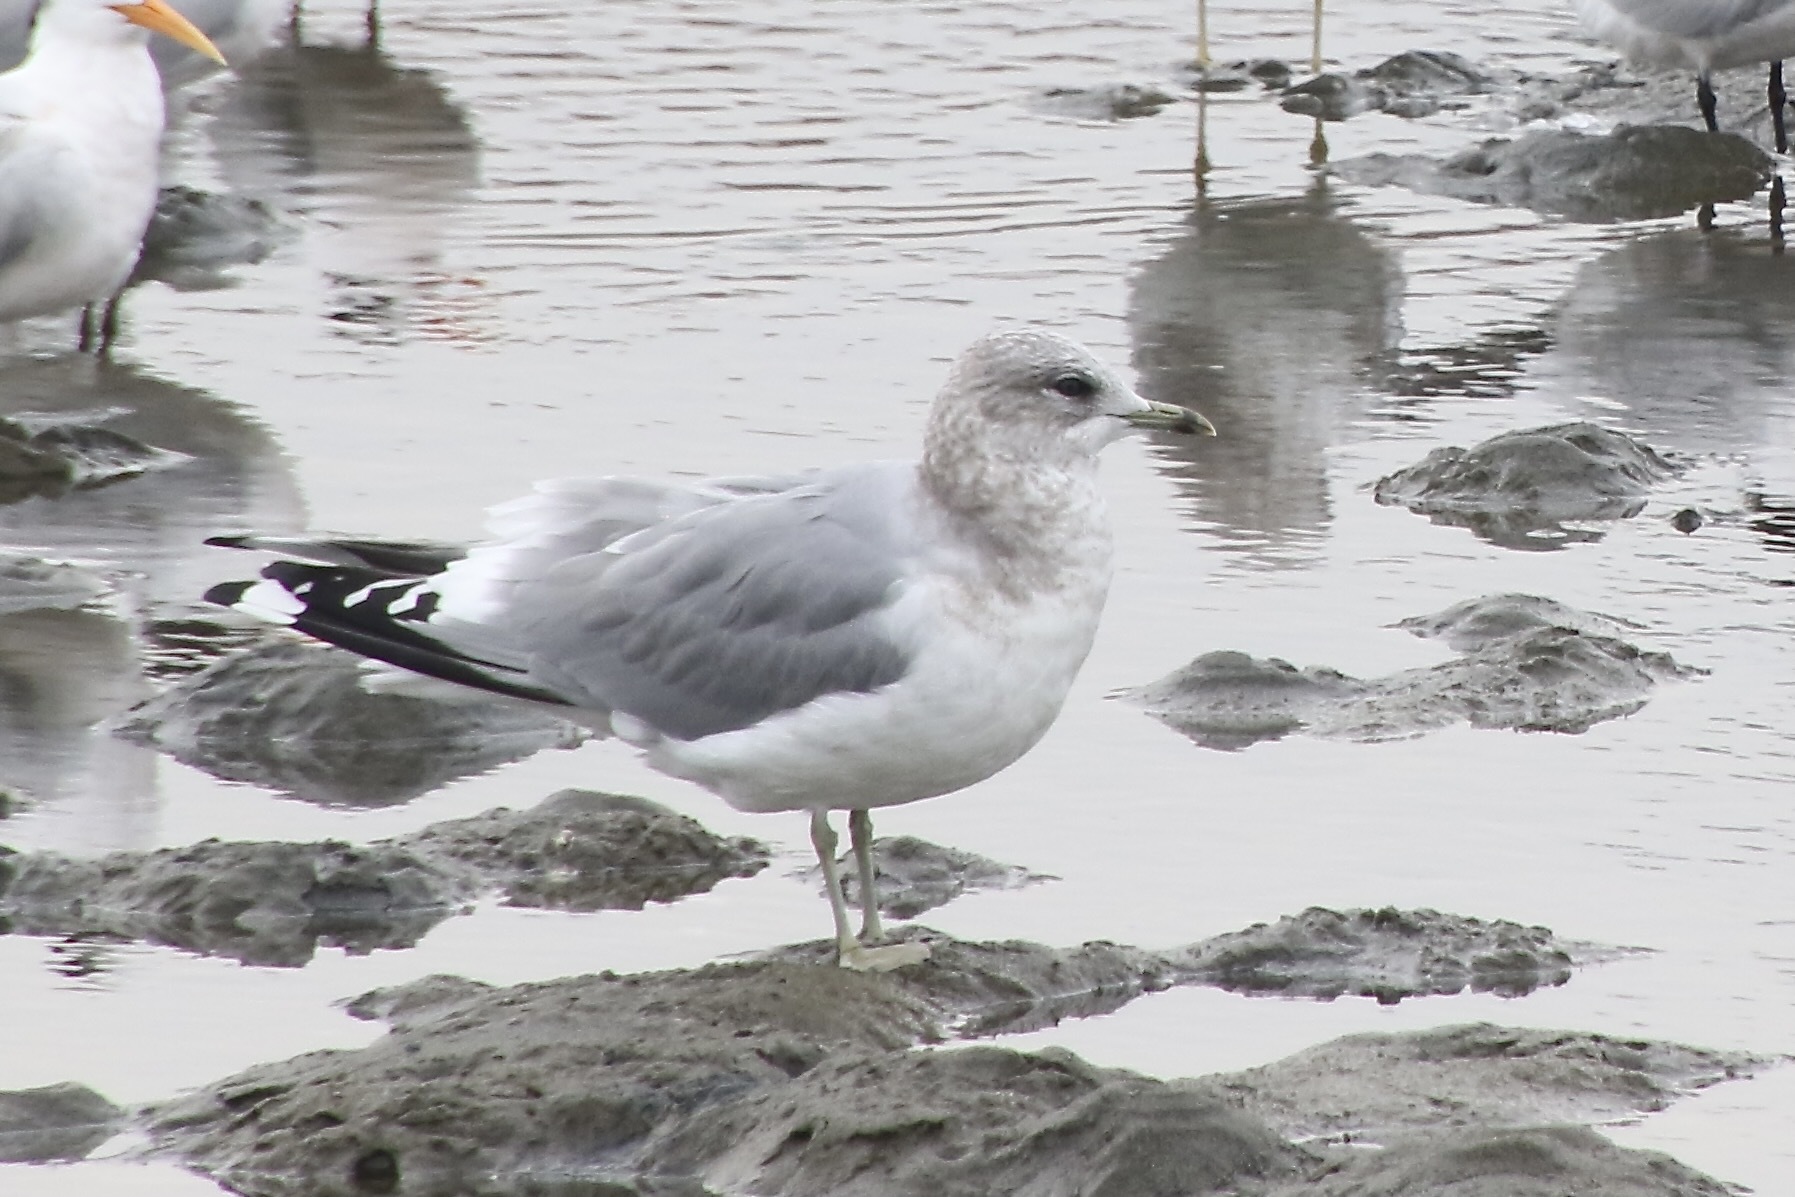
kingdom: Animalia
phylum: Chordata
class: Aves
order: Charadriiformes
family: Laridae
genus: Larus
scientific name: Larus brachyrhynchus
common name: Short-billed gull
